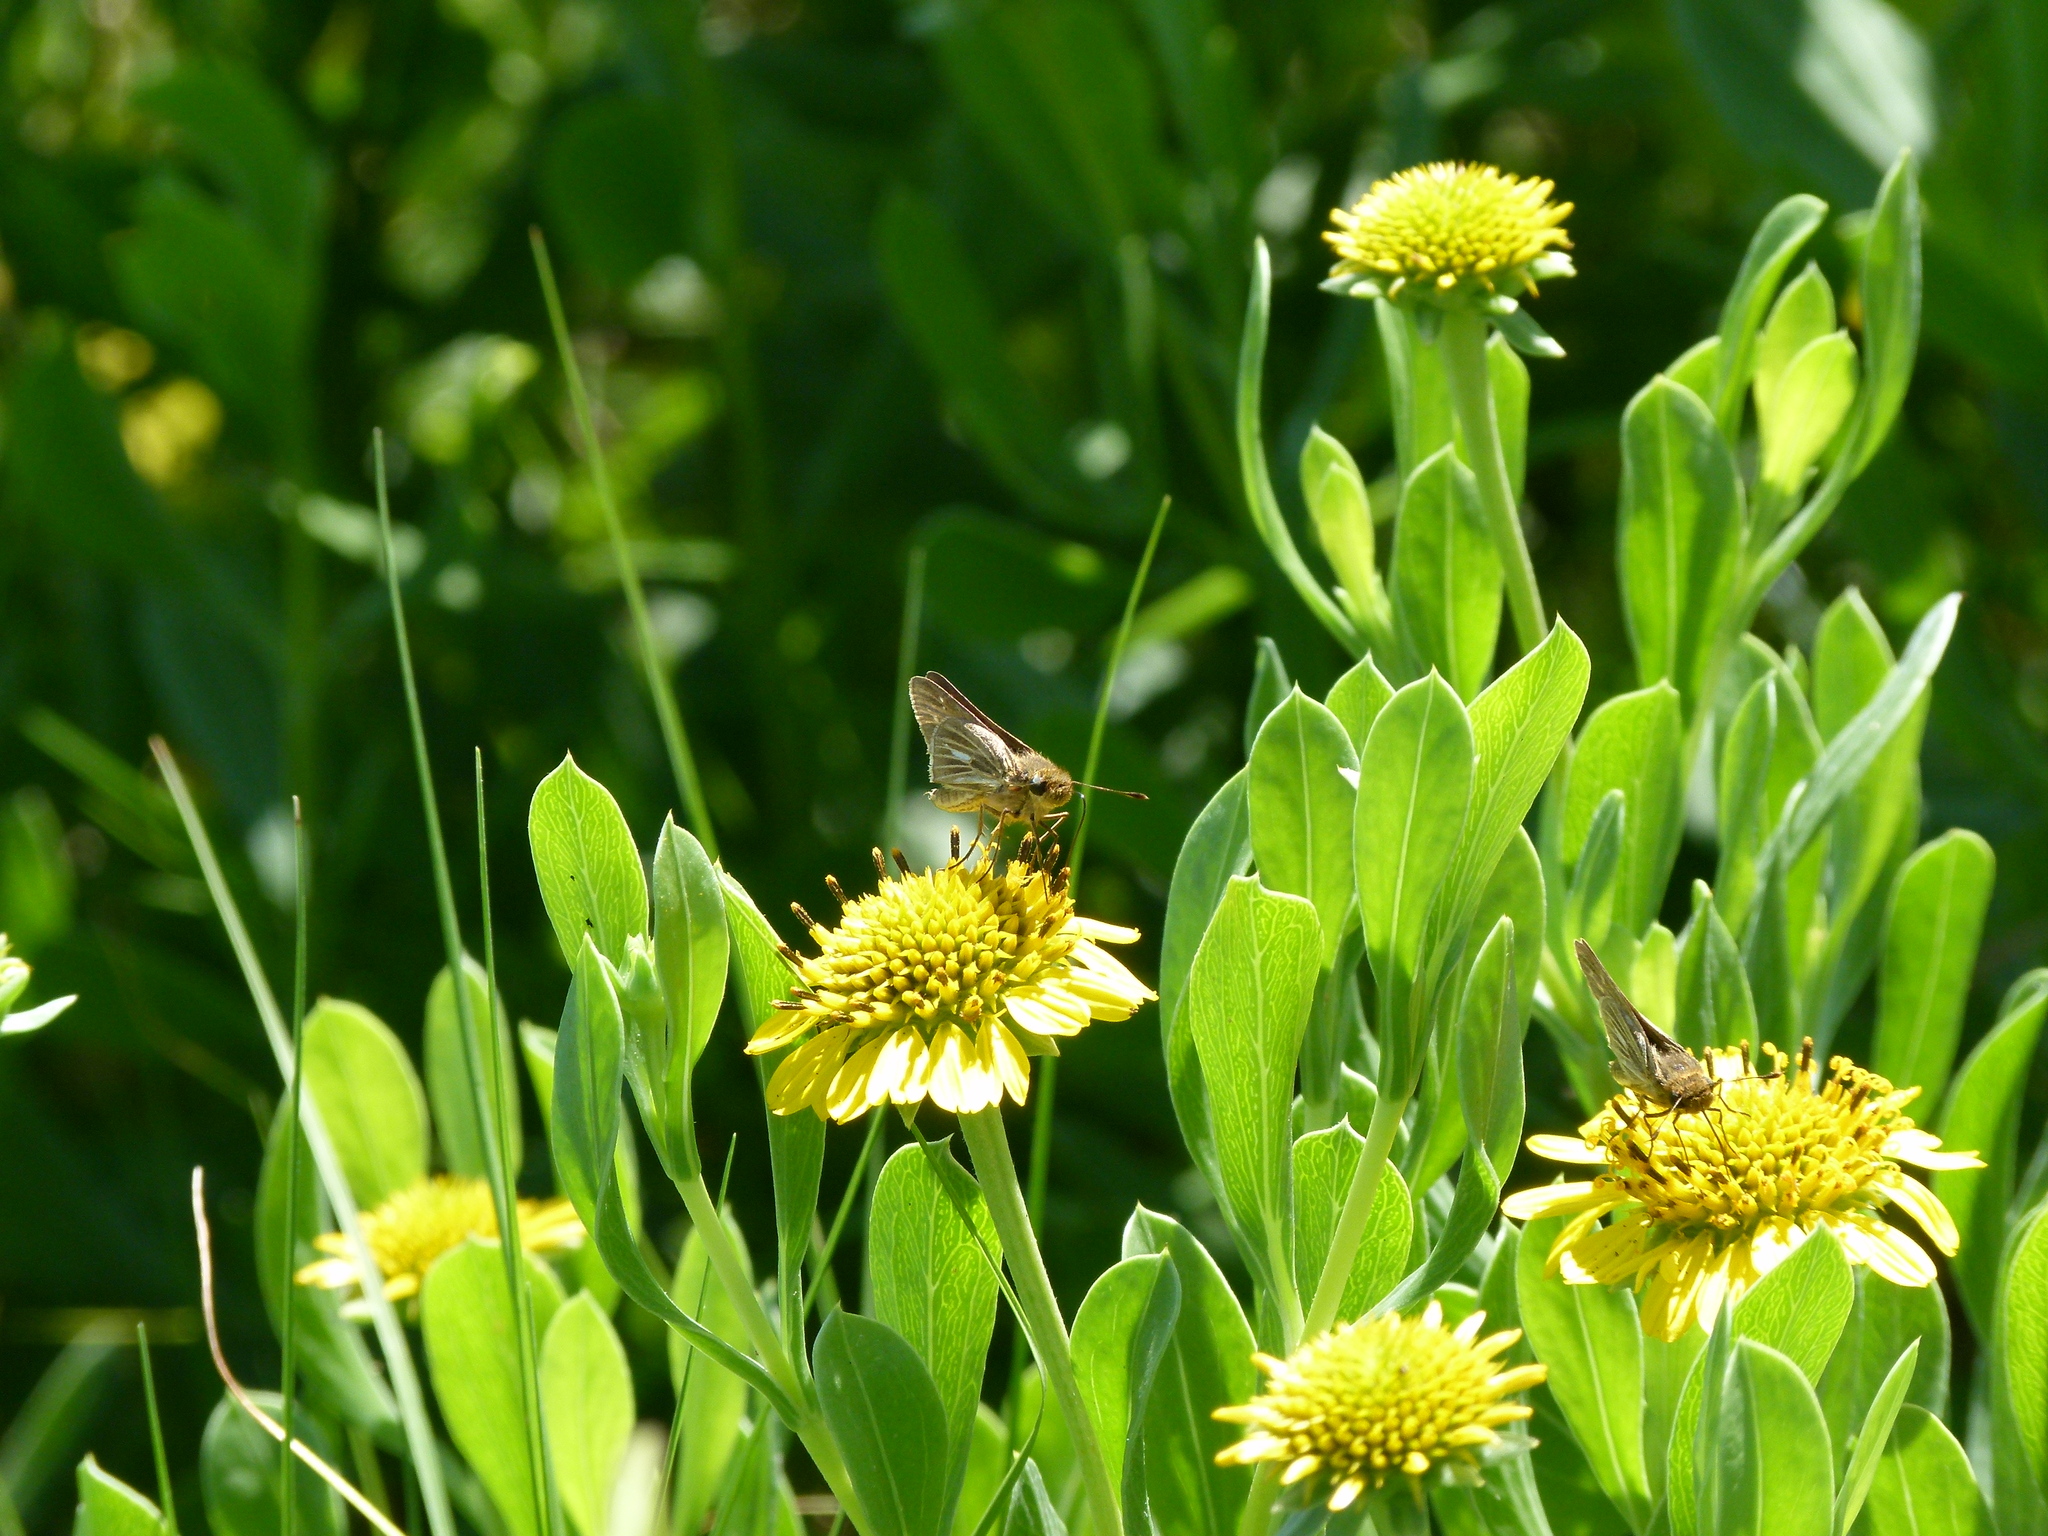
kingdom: Plantae
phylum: Tracheophyta
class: Magnoliopsida
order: Asterales
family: Asteraceae
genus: Borrichia
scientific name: Borrichia frutescens
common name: Sea oxeye
